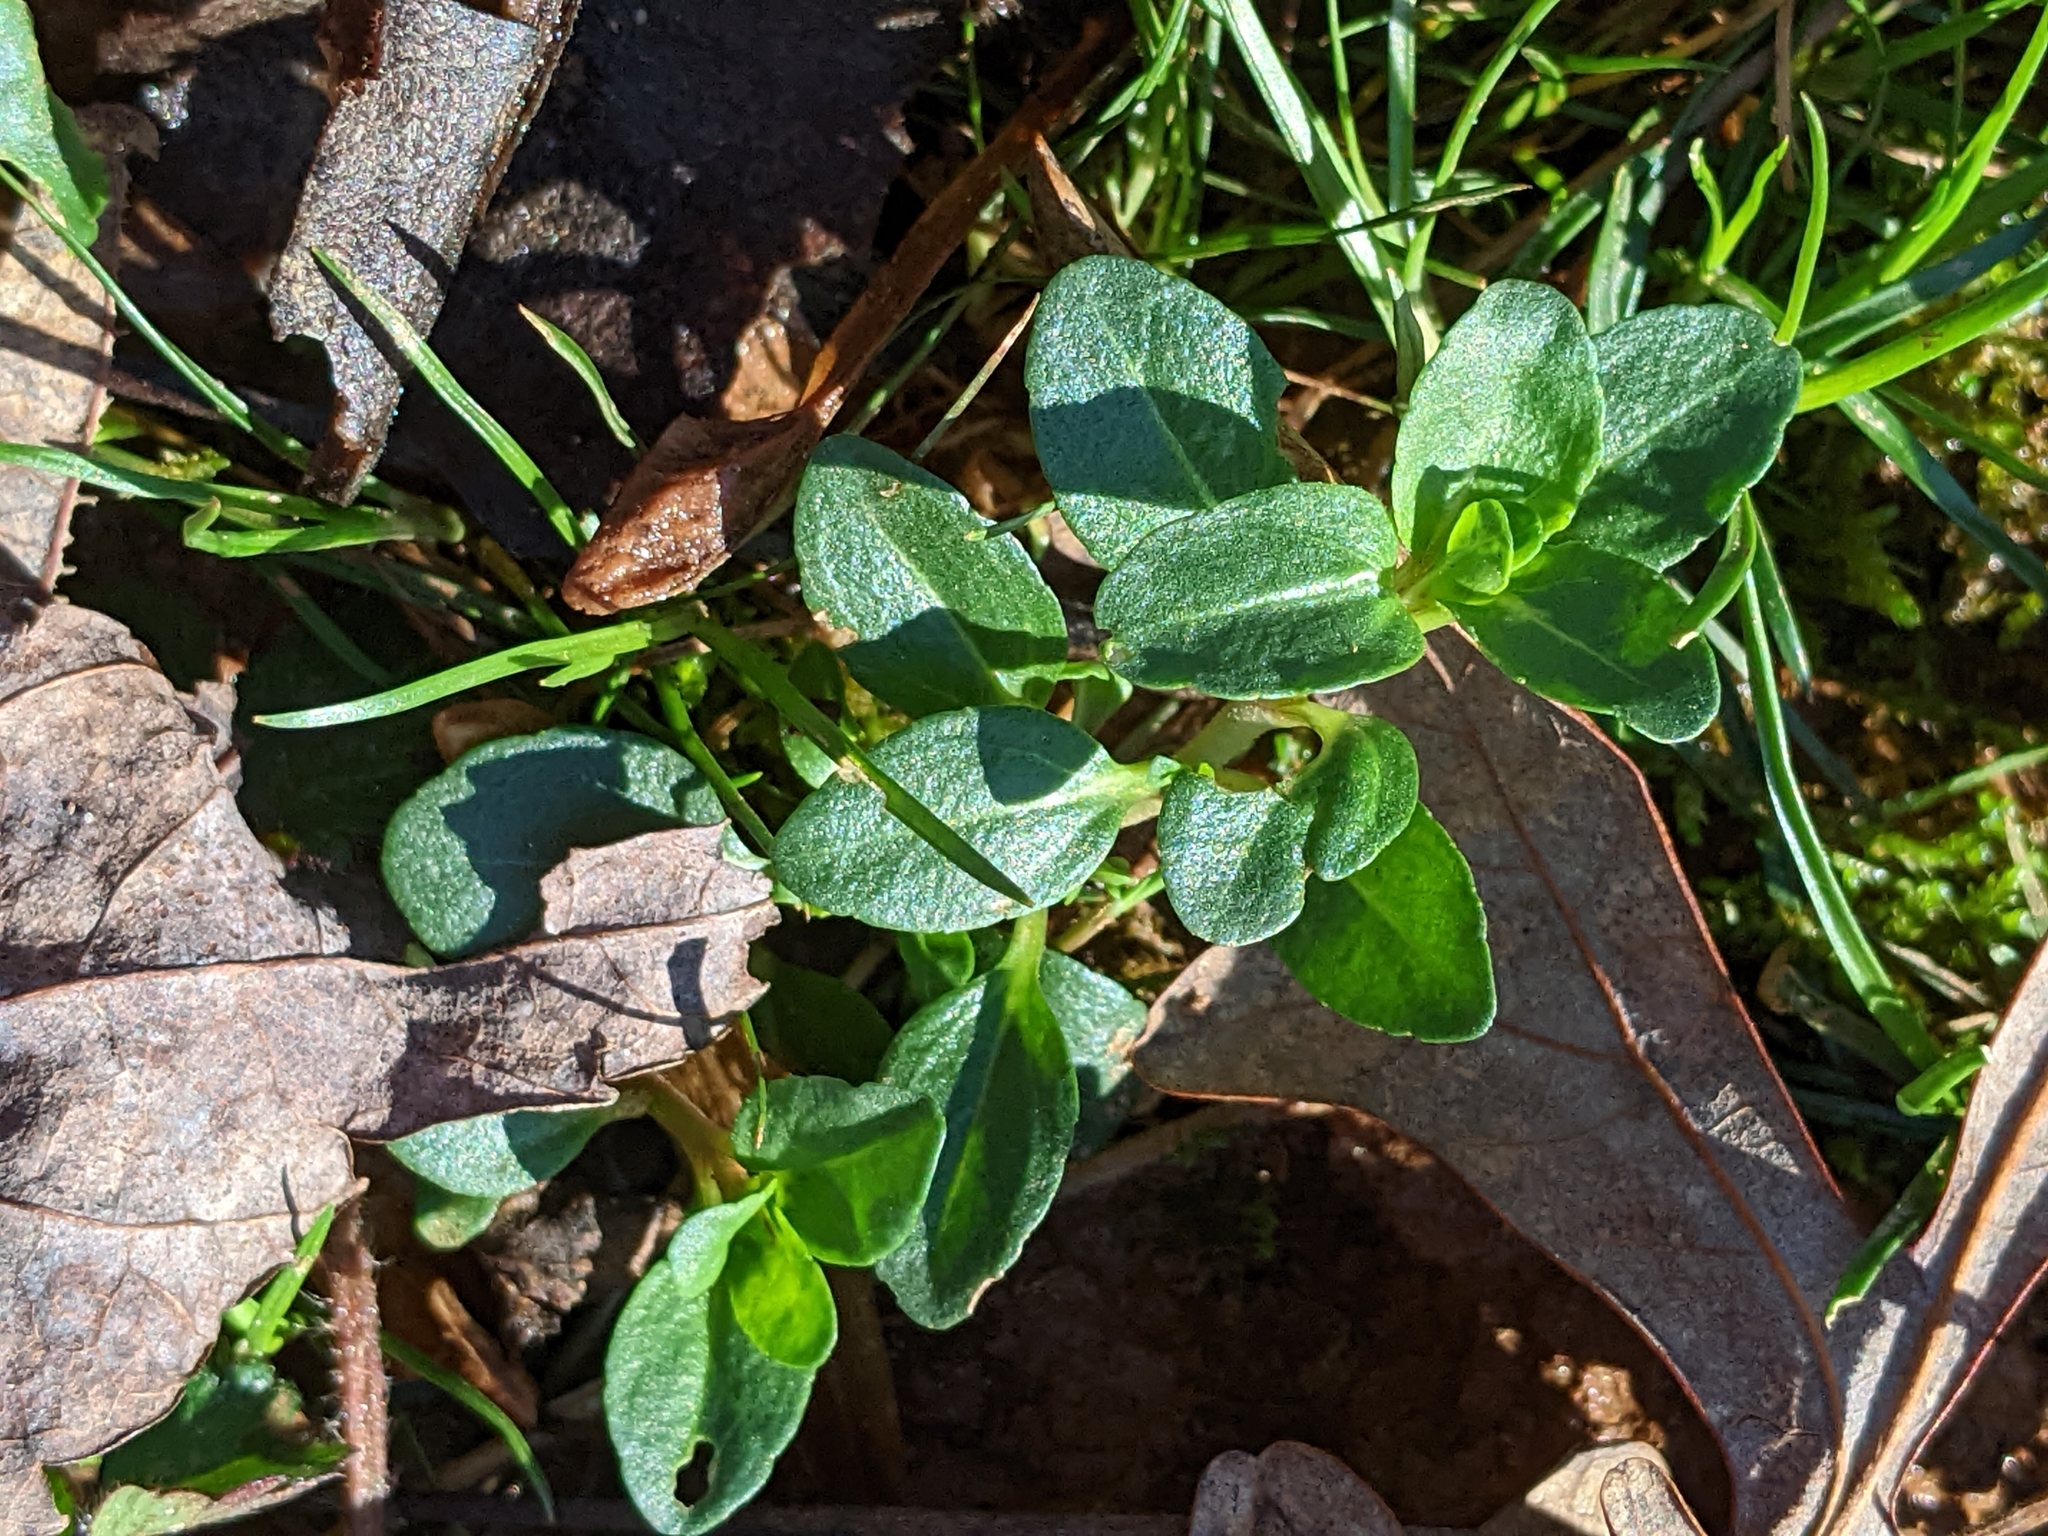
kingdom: Plantae
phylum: Tracheophyta
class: Magnoliopsida
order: Lamiales
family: Plantaginaceae
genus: Veronica
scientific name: Veronica serpyllifolia
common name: Thyme-leaved speedwell
